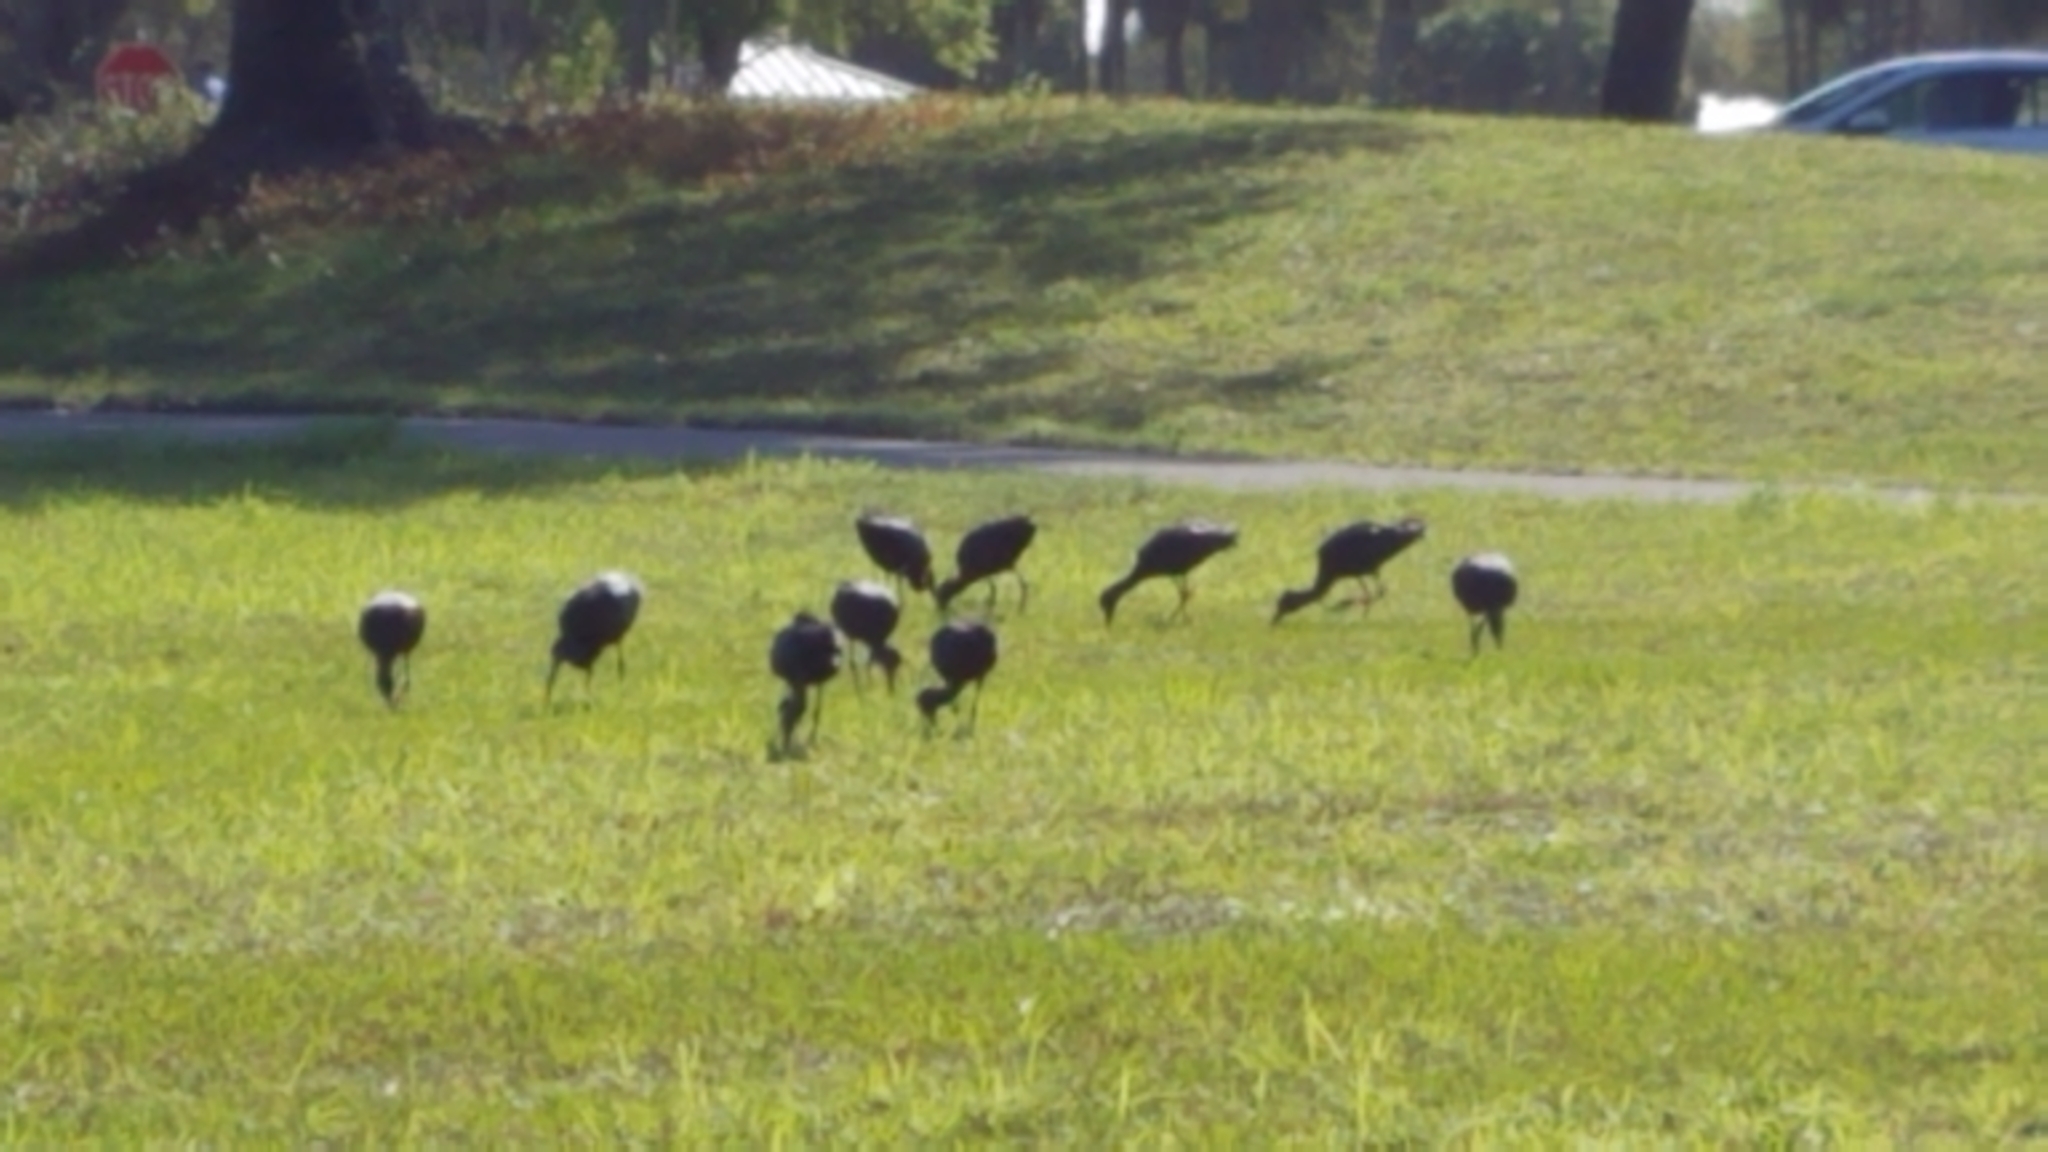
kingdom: Animalia
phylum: Chordata
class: Aves
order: Pelecaniformes
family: Threskiornithidae
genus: Plegadis
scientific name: Plegadis falcinellus
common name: Glossy ibis
